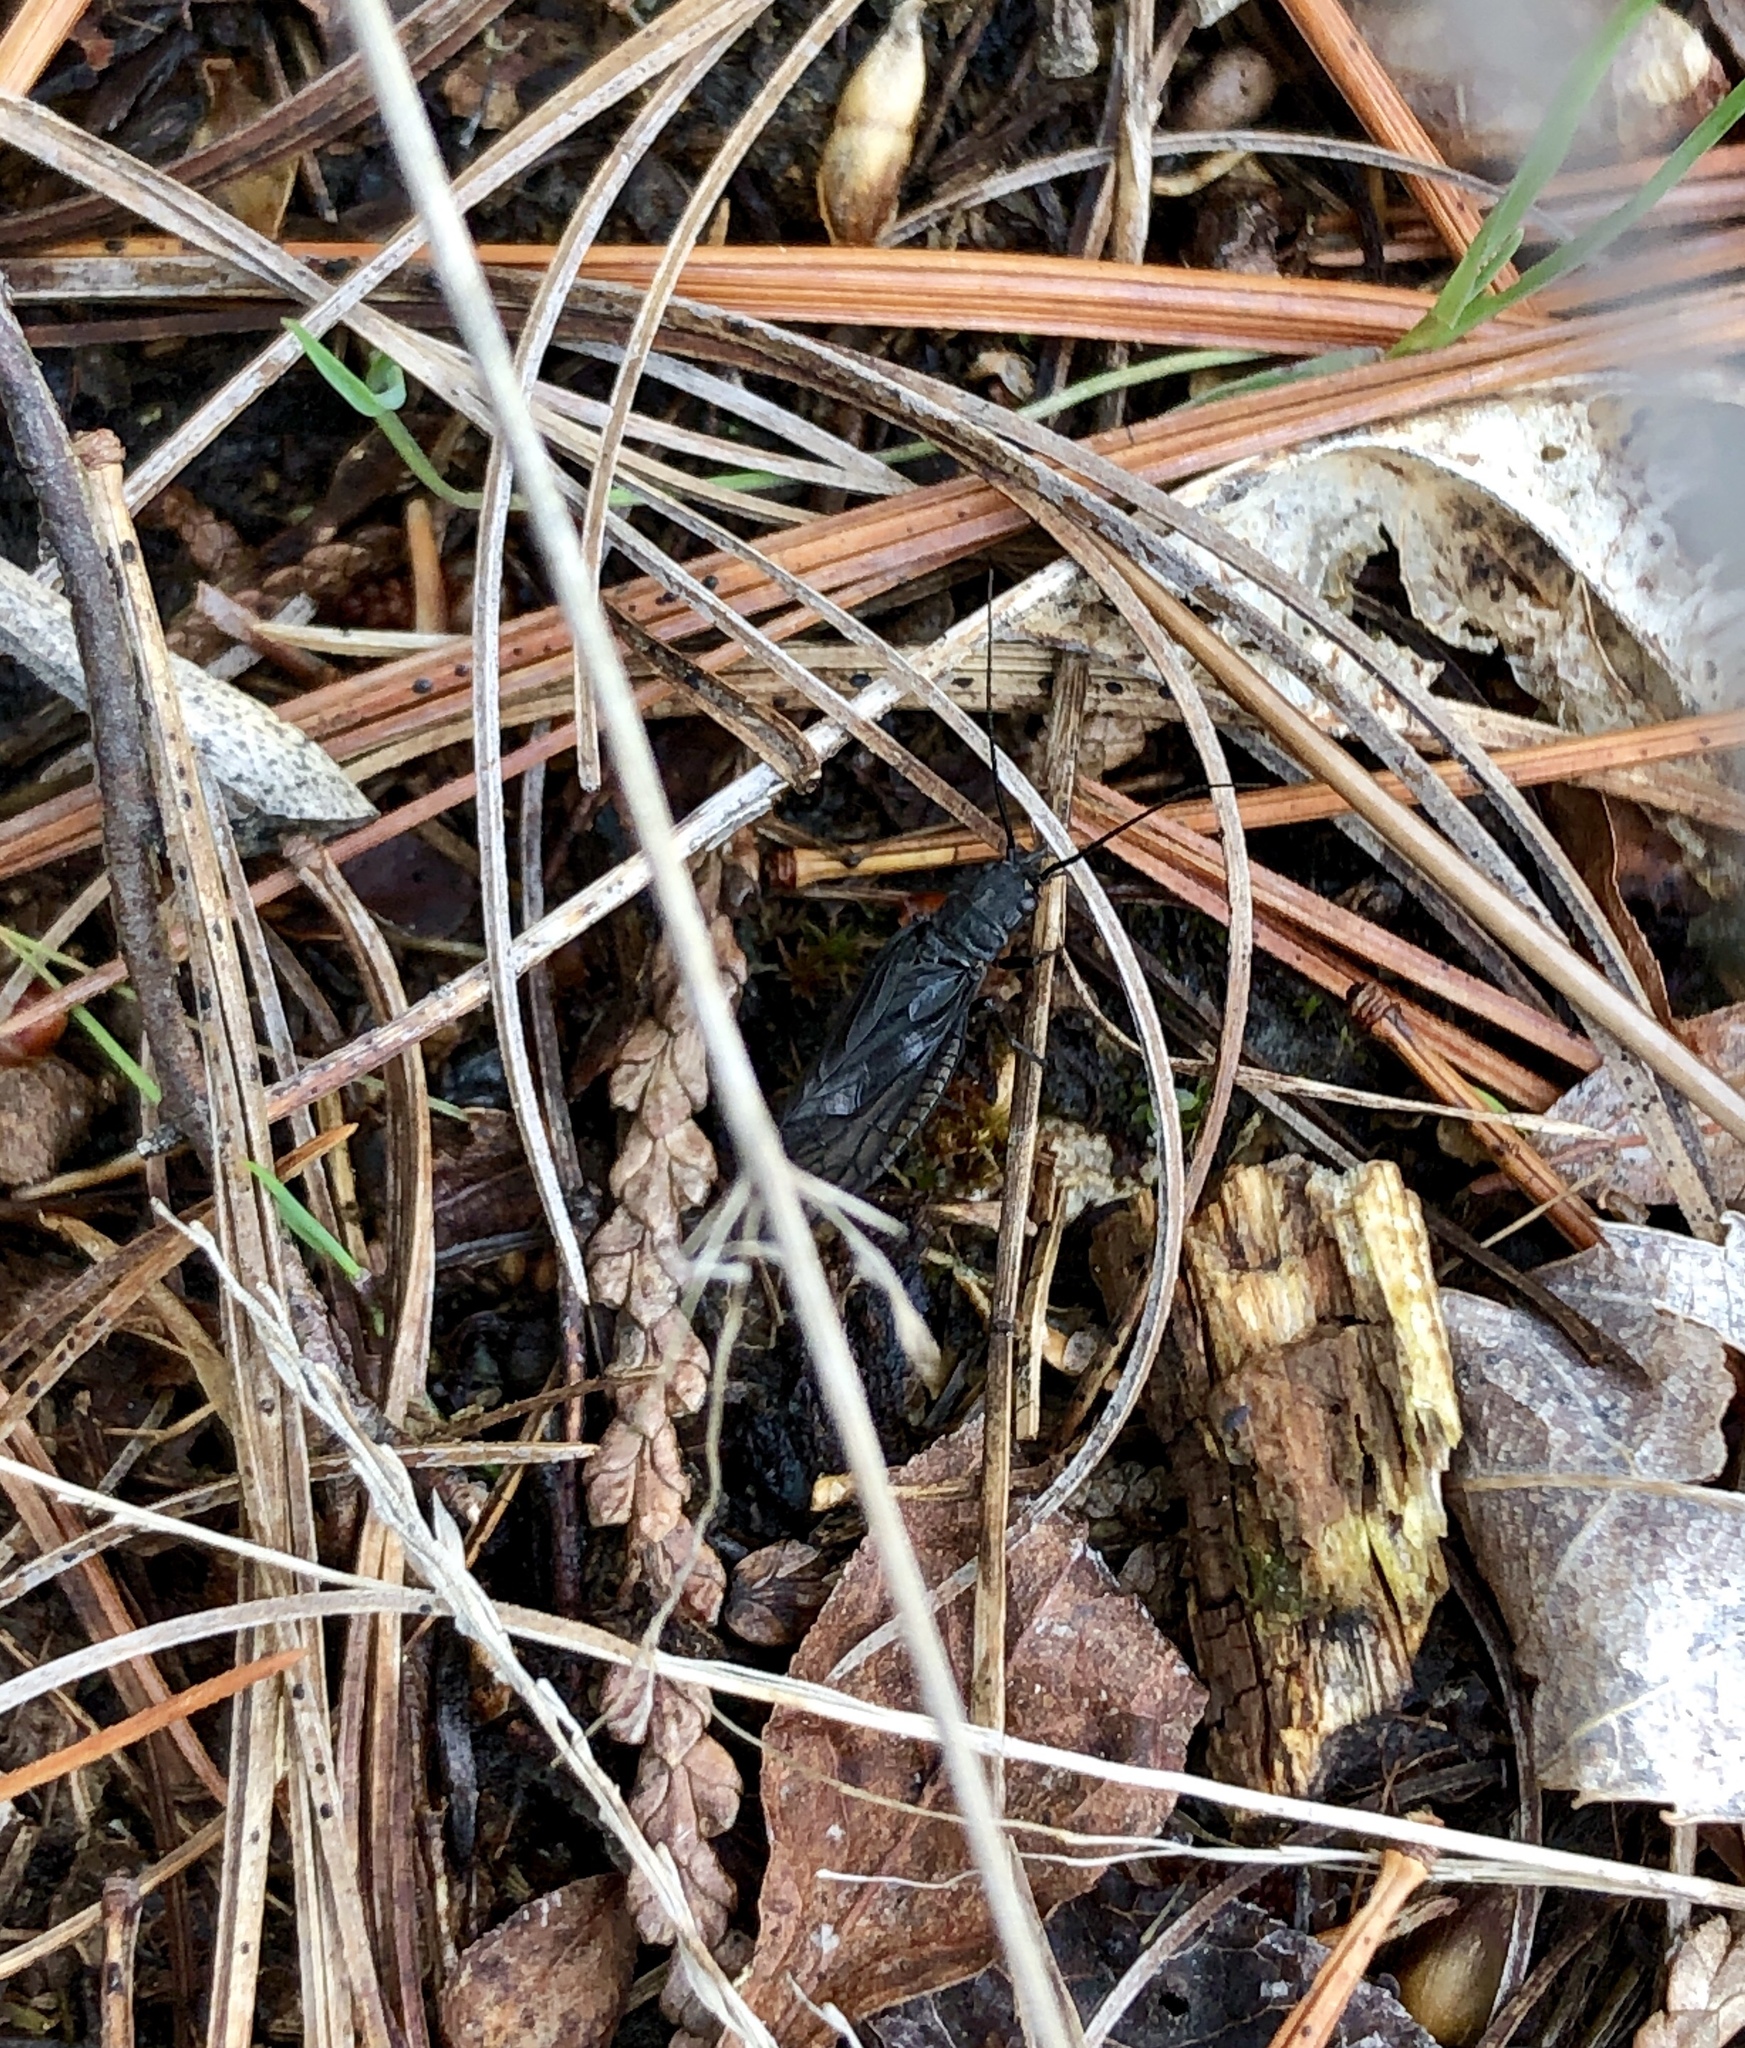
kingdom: Animalia
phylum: Arthropoda
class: Insecta
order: Megaloptera
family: Sialidae
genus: Sialis
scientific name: Sialis
